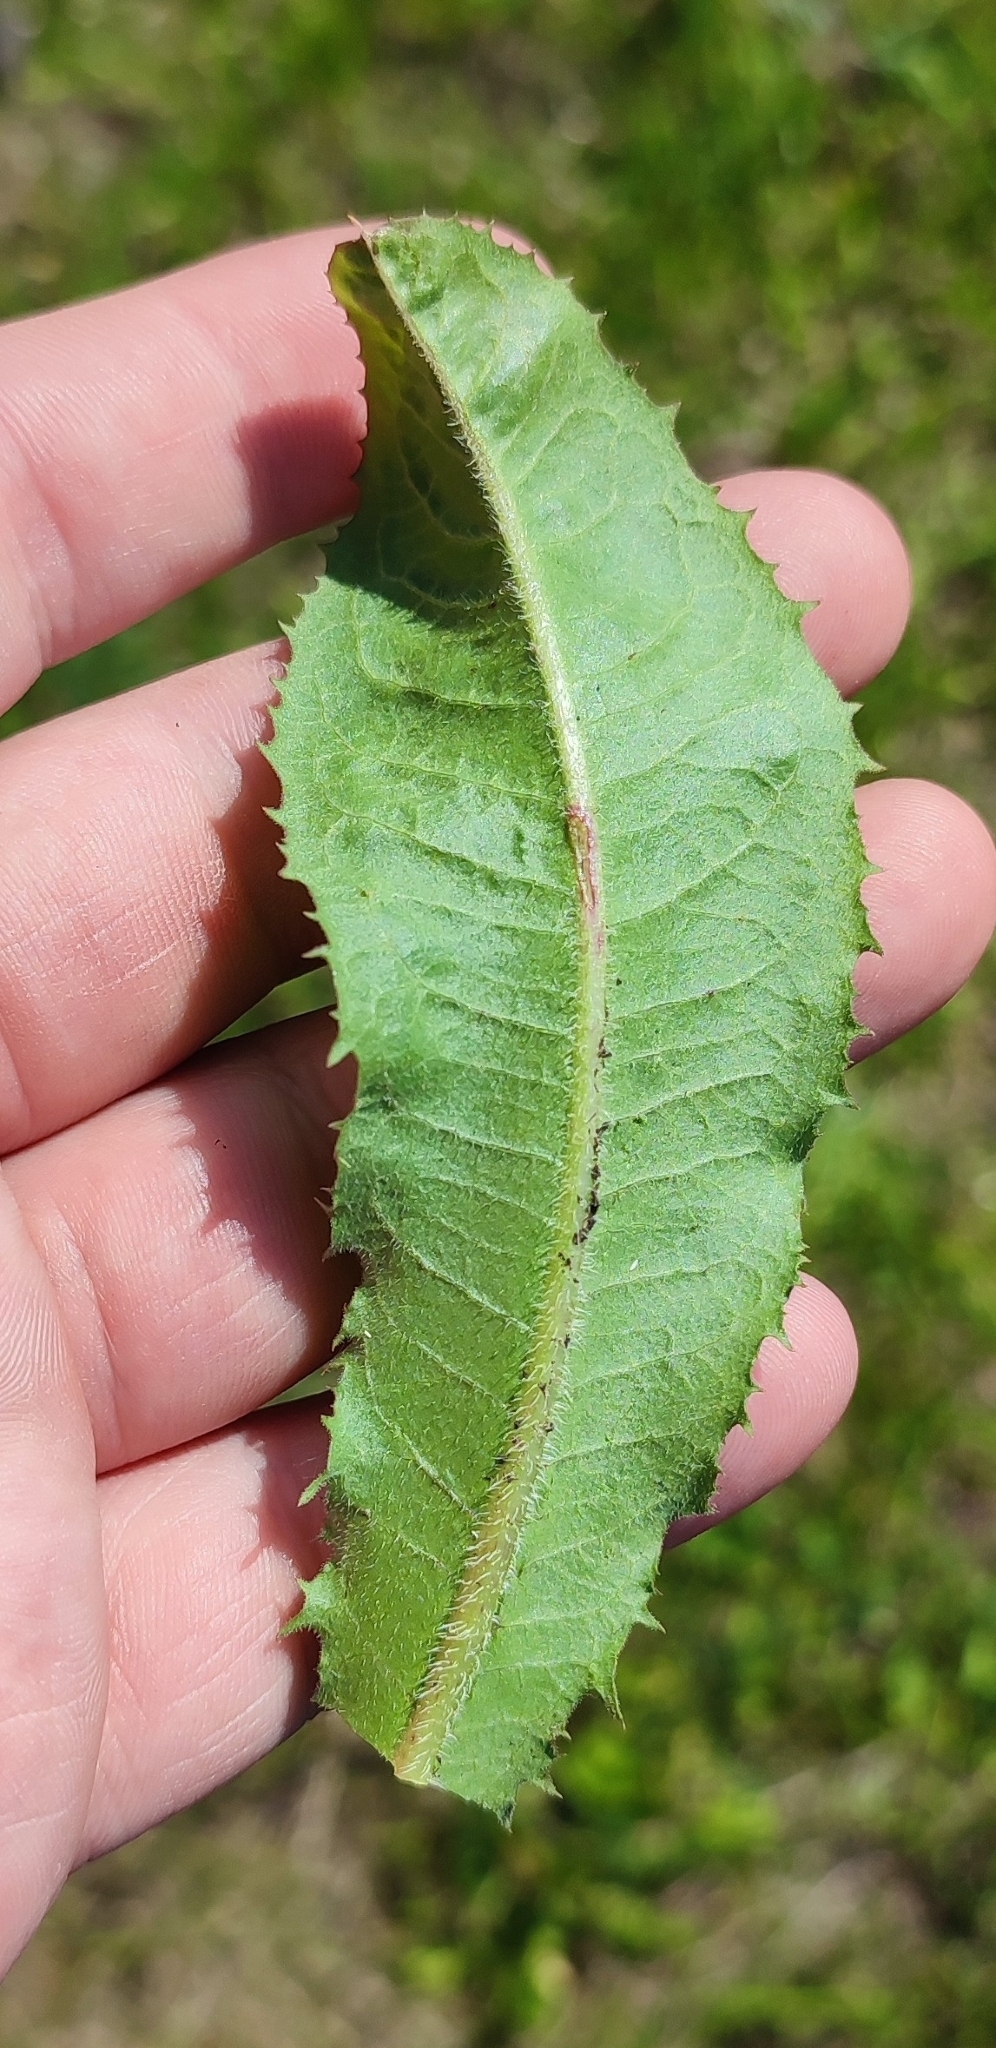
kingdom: Plantae
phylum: Tracheophyta
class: Magnoliopsida
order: Asterales
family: Asteraceae
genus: Cichorium
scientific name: Cichorium intybus
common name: Chicory
